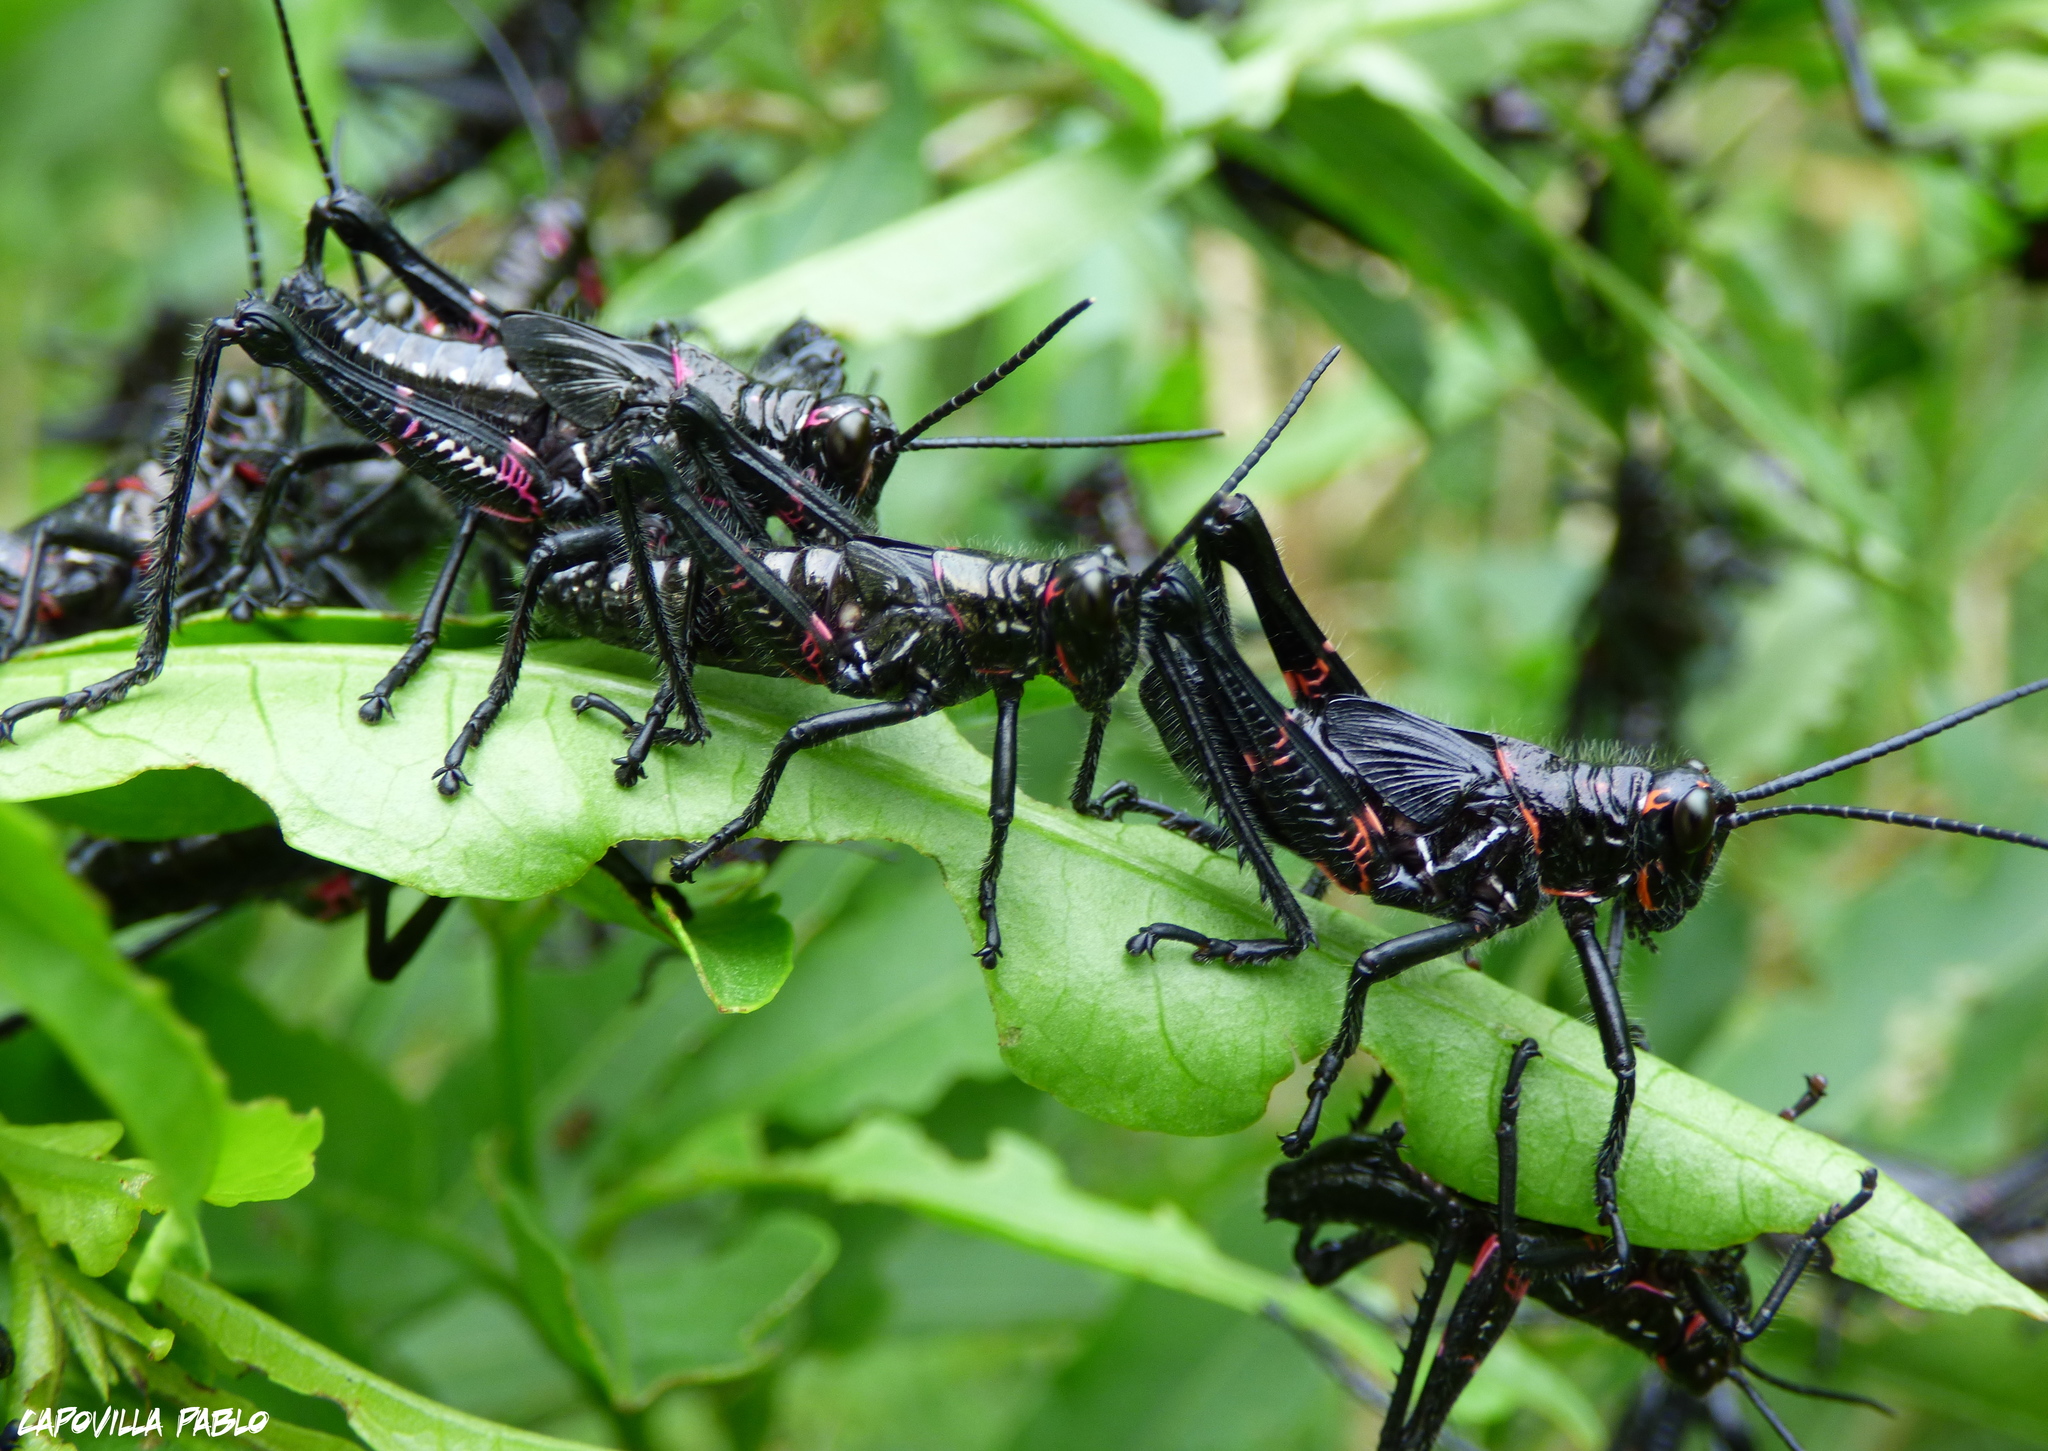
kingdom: Animalia
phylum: Arthropoda
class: Insecta
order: Orthoptera
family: Romaleidae
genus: Chromacris
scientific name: Chromacris speciosa
